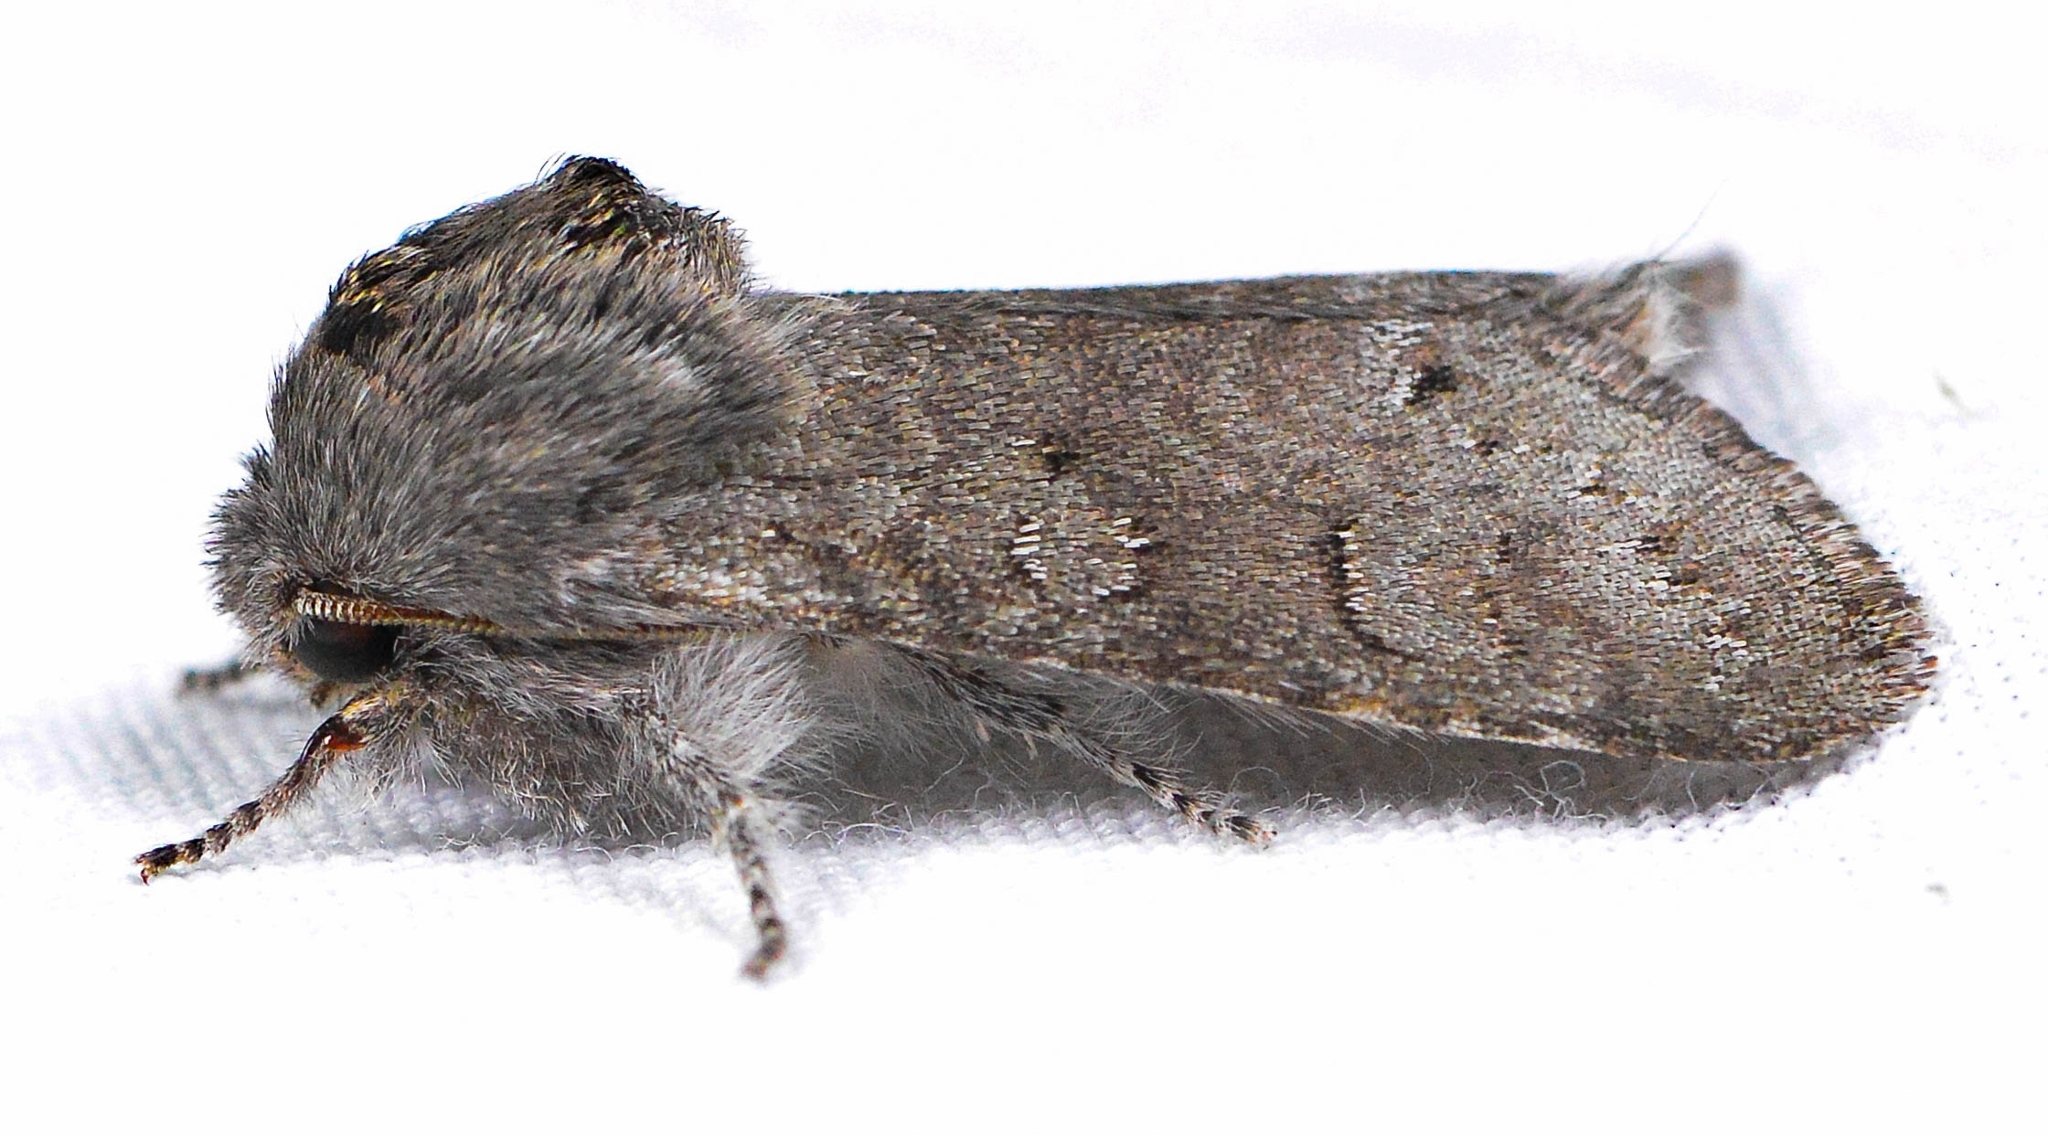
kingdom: Animalia
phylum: Arthropoda
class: Insecta
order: Lepidoptera
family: Noctuidae
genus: Psaphida
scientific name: Psaphida rolandi
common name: Roland's sallow
